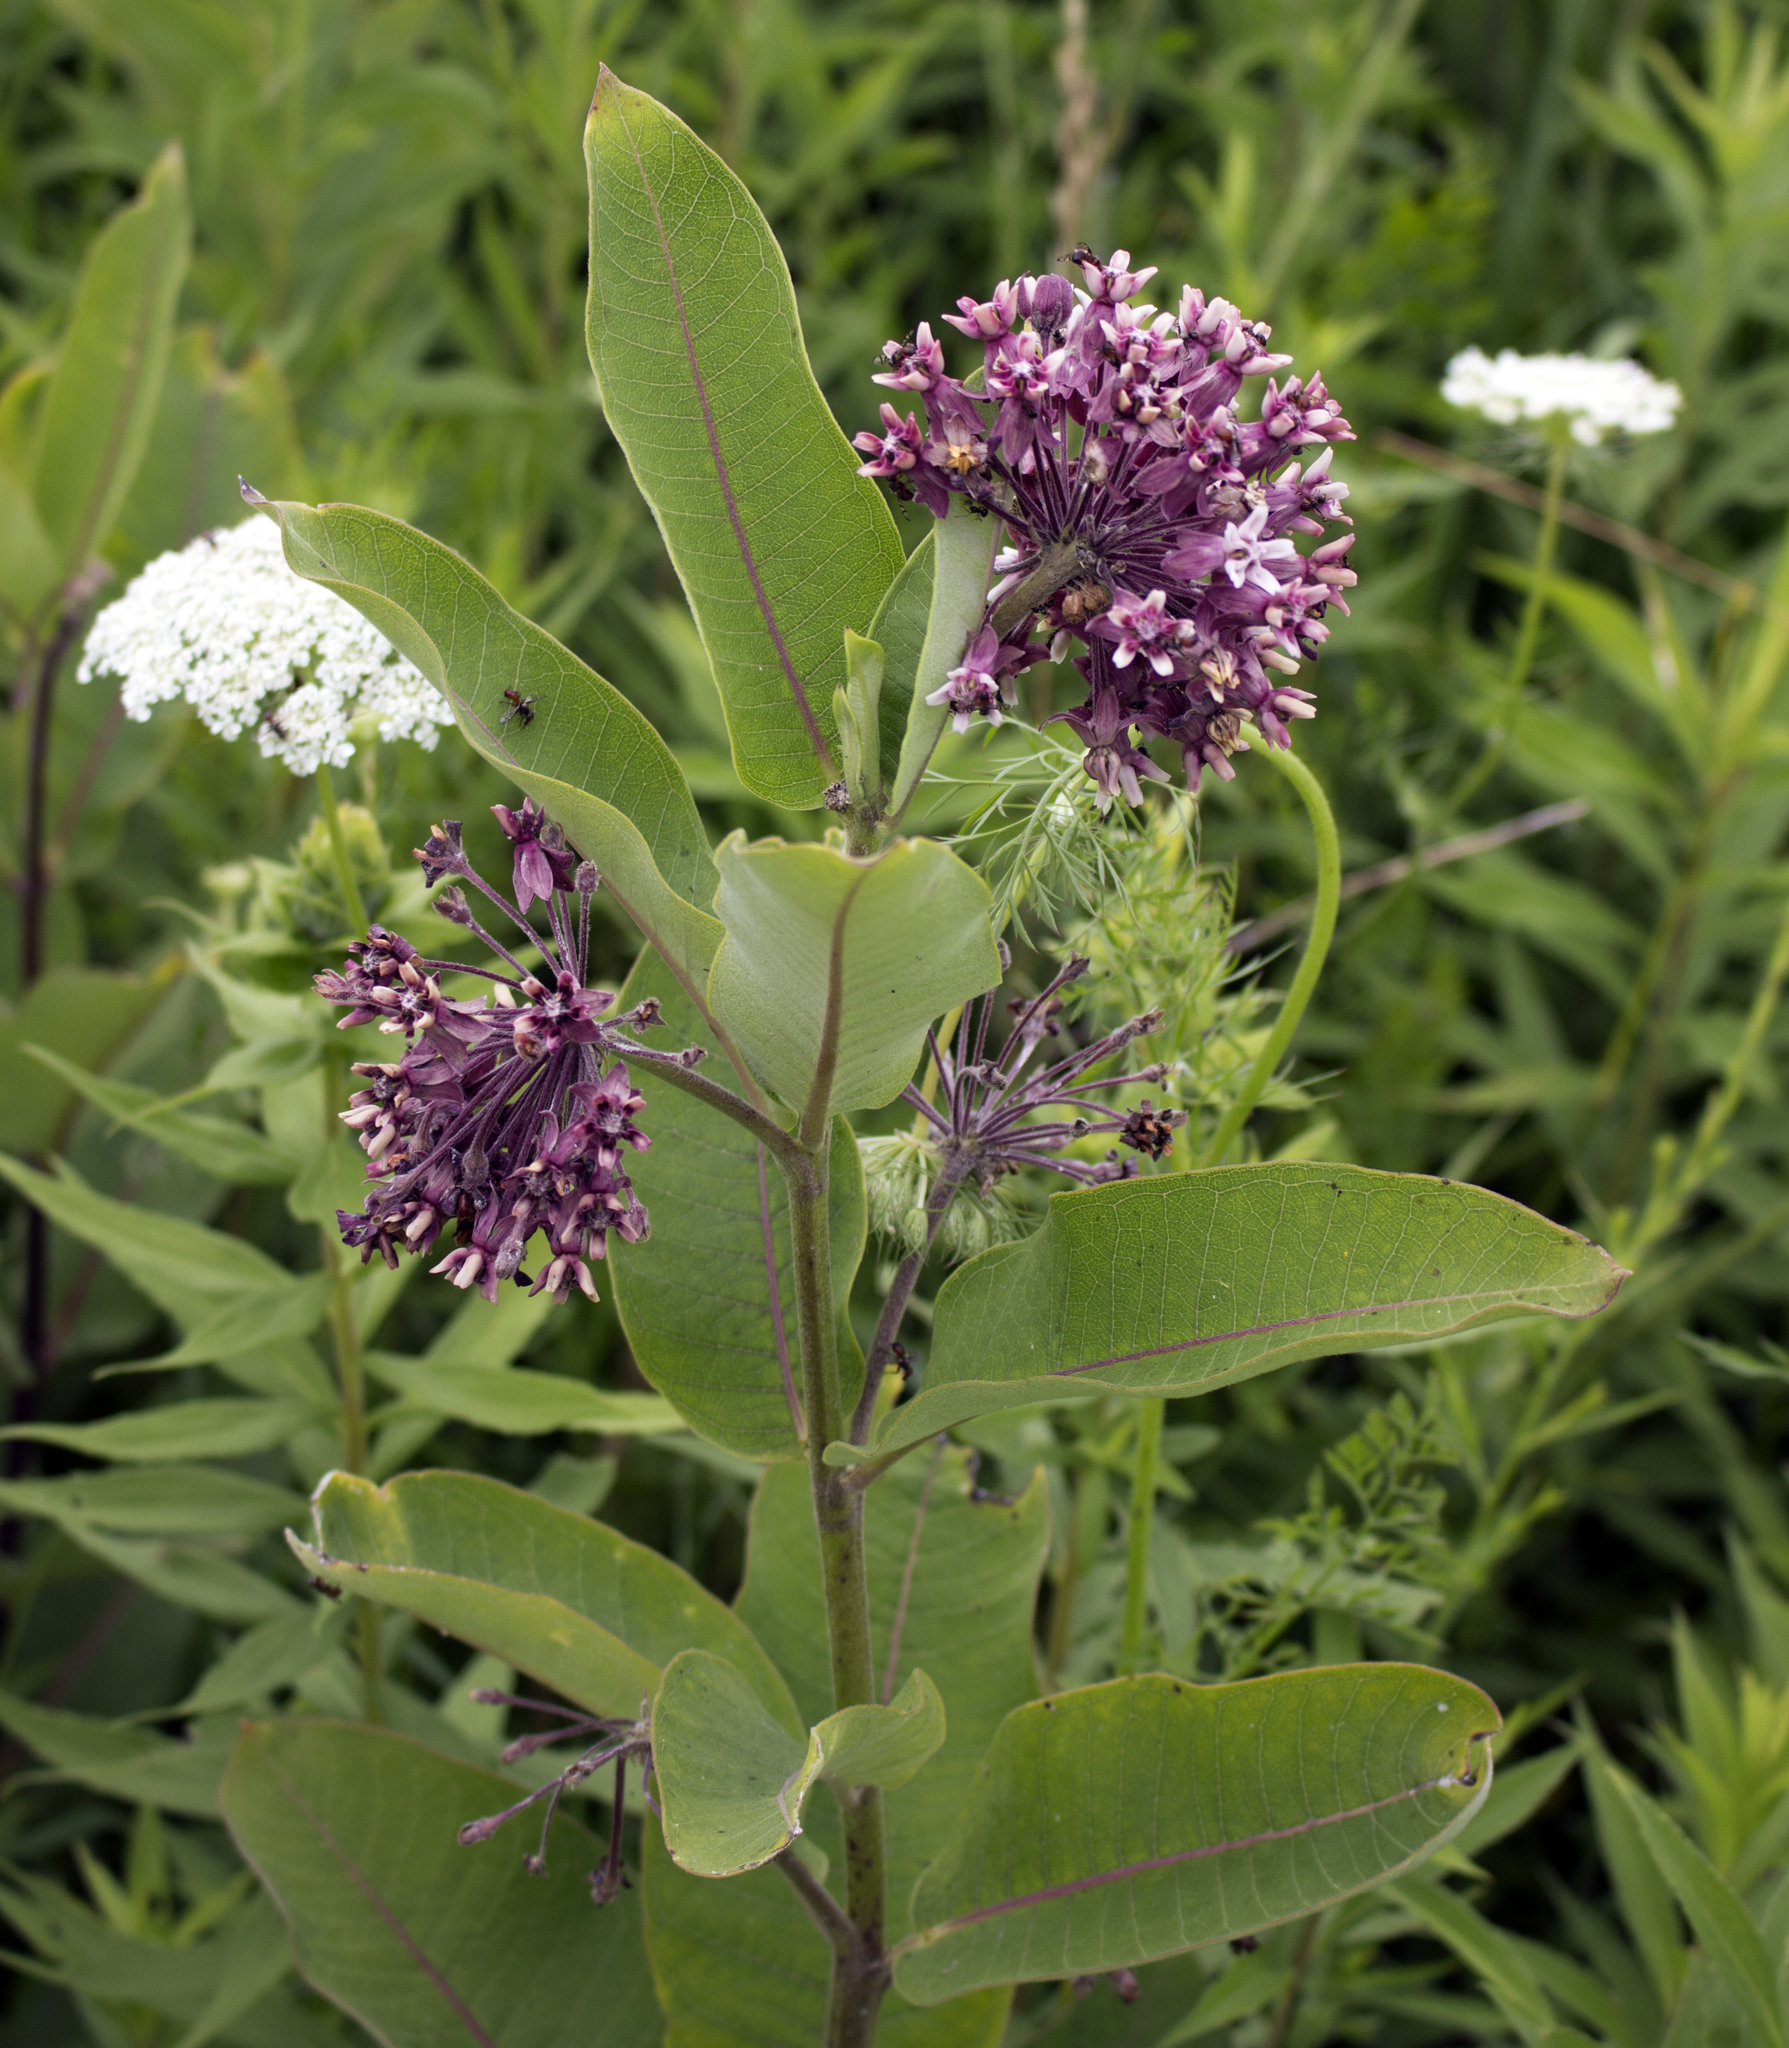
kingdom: Plantae
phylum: Tracheophyta
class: Magnoliopsida
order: Gentianales
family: Apocynaceae
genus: Asclepias
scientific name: Asclepias syriaca
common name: Common milkweed
